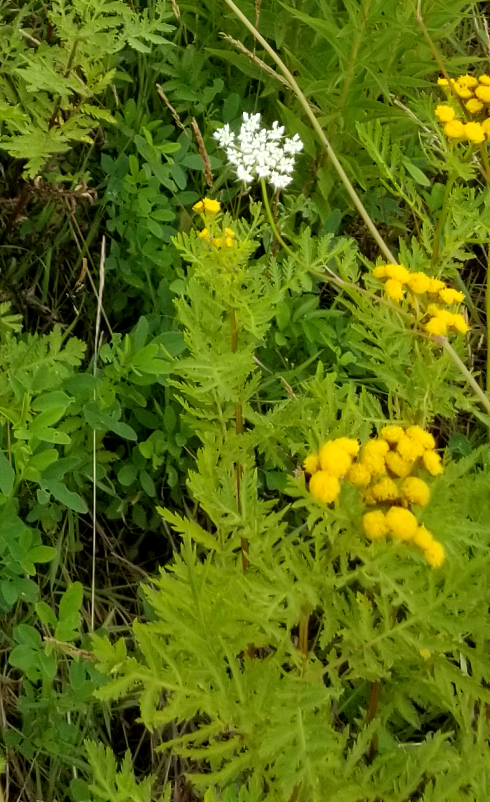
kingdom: Plantae
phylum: Tracheophyta
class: Magnoliopsida
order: Asterales
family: Asteraceae
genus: Tanacetum
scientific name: Tanacetum vulgare
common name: Common tansy
